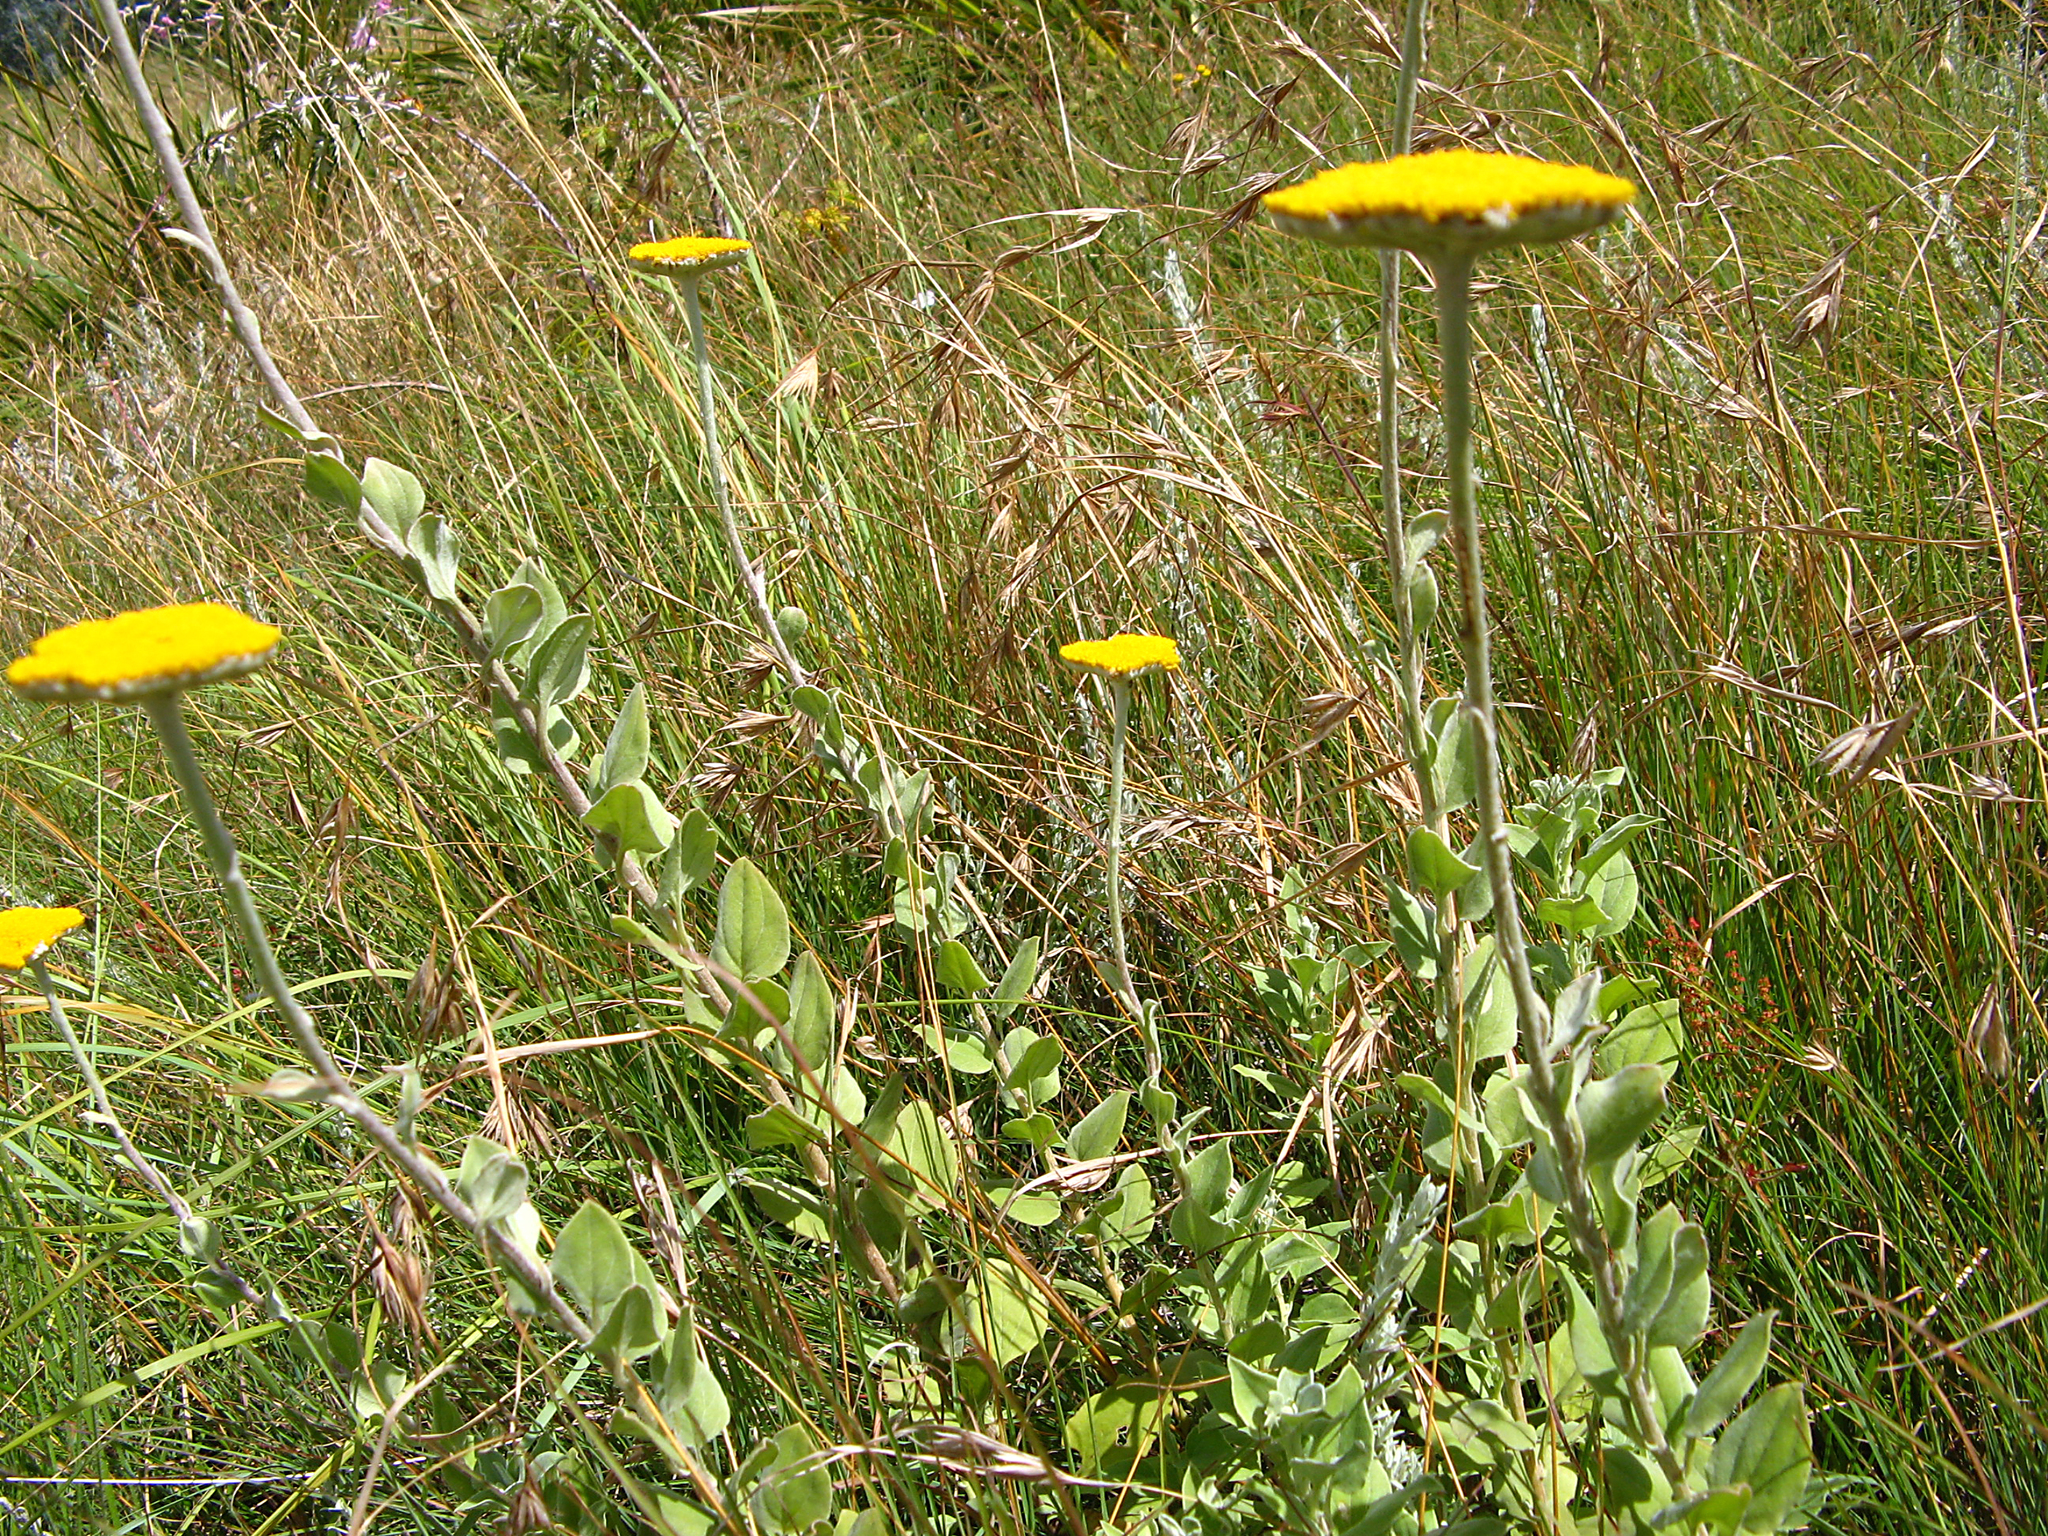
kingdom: Plantae
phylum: Tracheophyta
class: Magnoliopsida
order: Asterales
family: Asteraceae
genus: Helichrysum
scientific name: Helichrysum umbraculigerum
